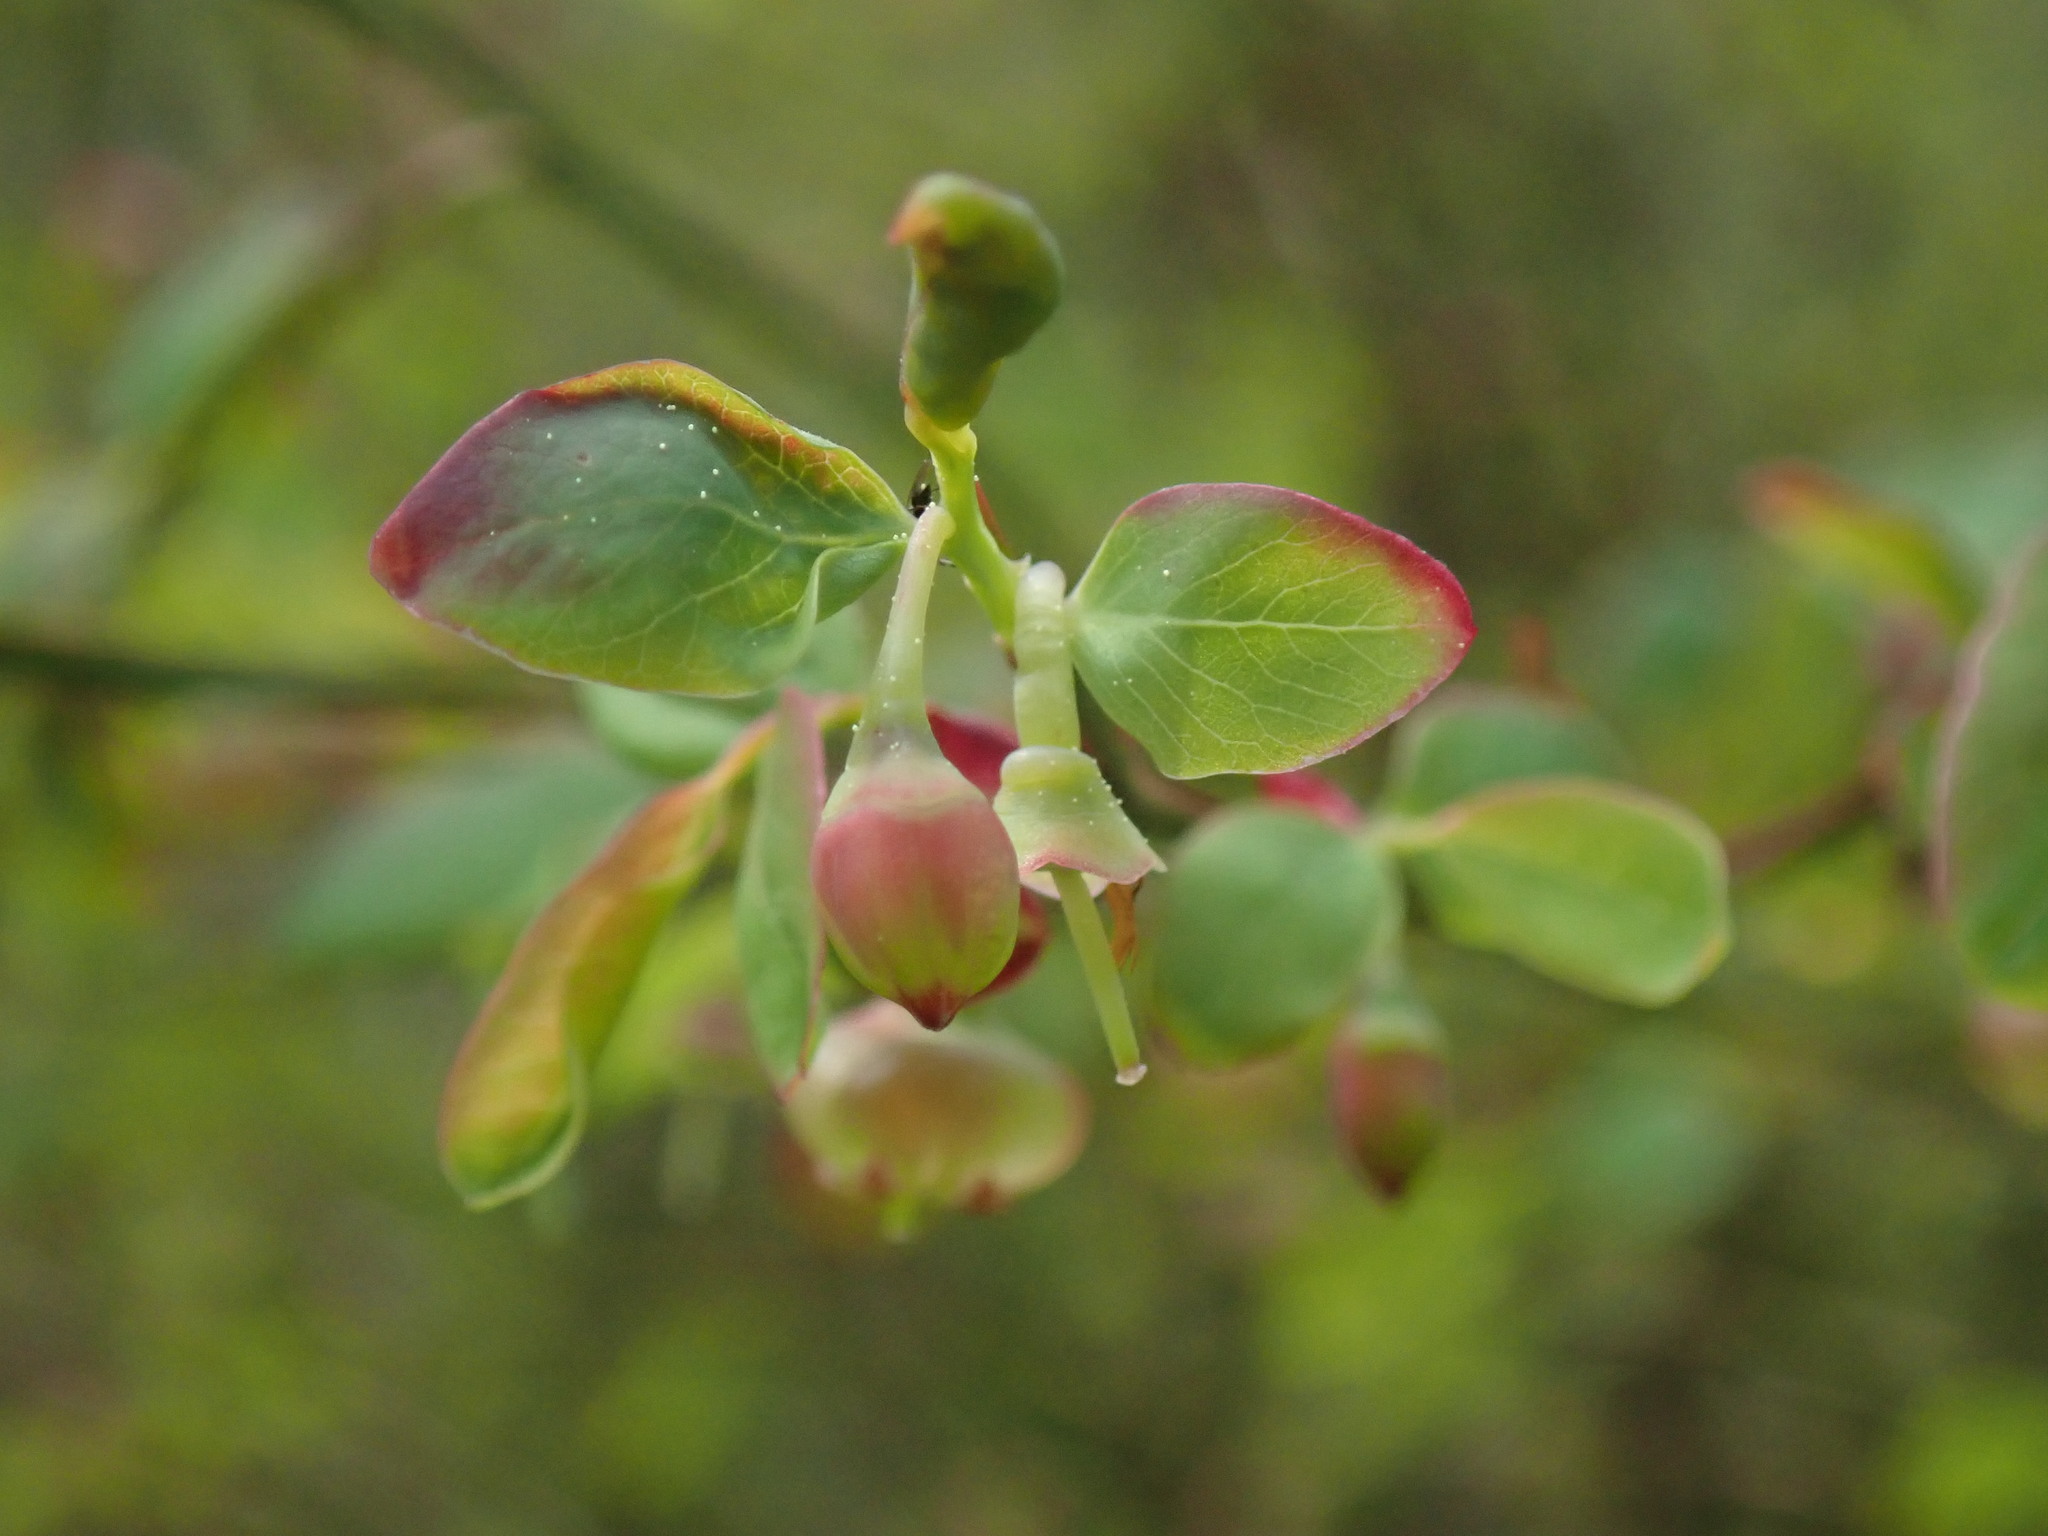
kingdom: Plantae
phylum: Tracheophyta
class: Magnoliopsida
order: Ericales
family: Ericaceae
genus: Vaccinium
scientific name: Vaccinium parvifolium
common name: Red-huckleberry
